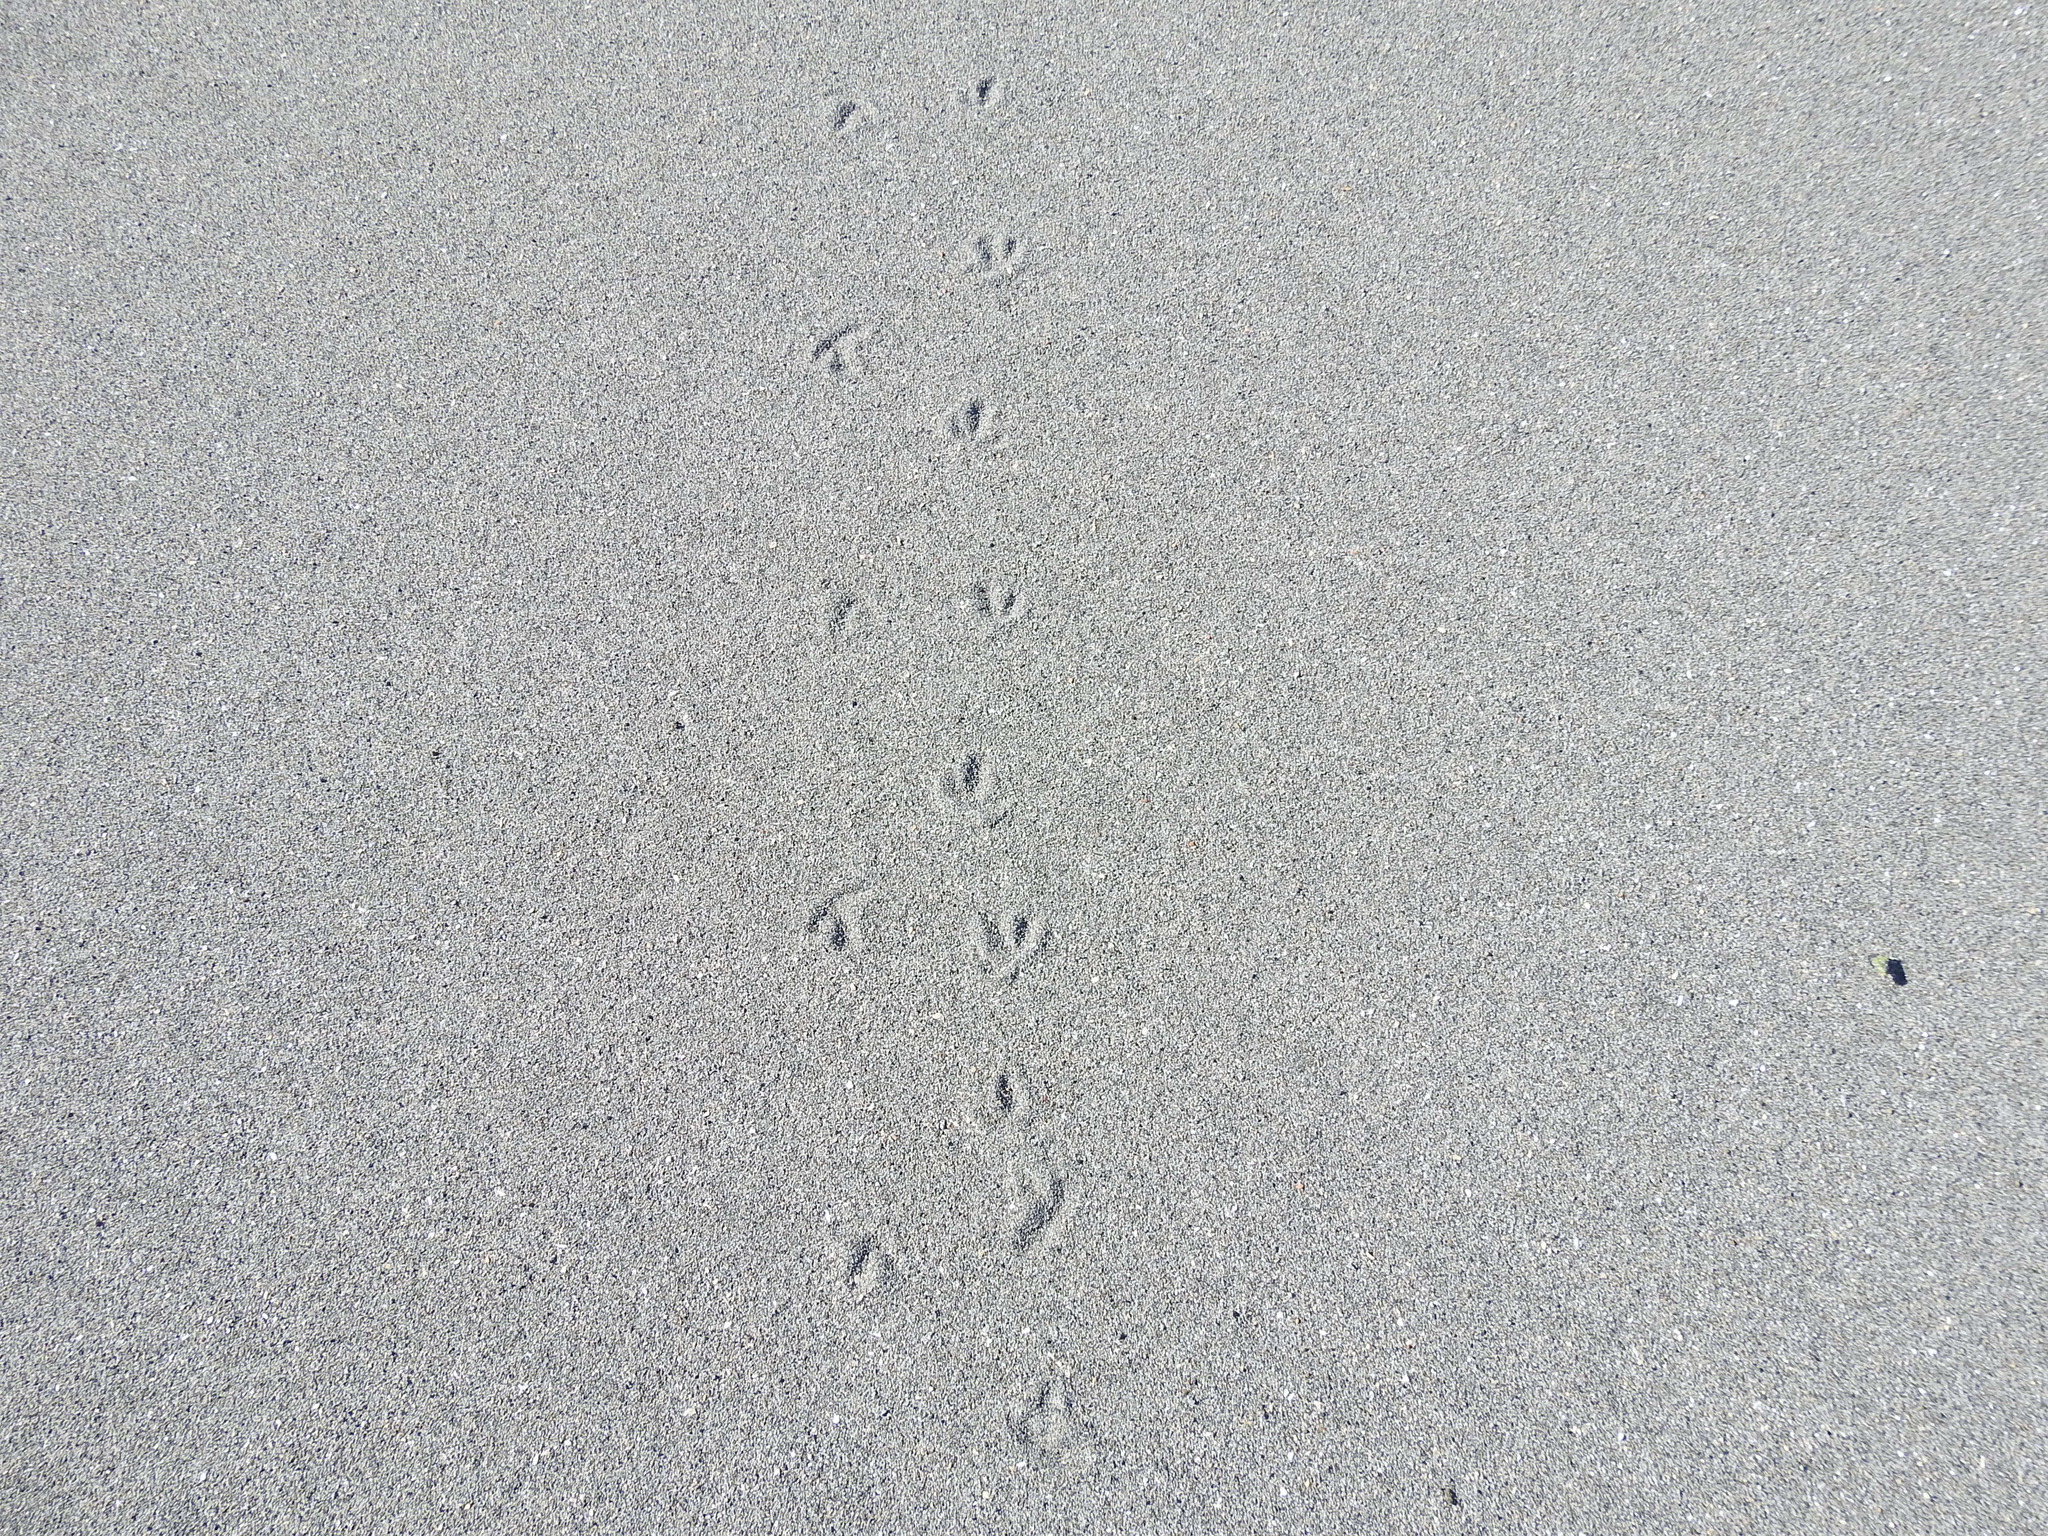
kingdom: Animalia
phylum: Chordata
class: Aves
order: Charadriiformes
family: Charadriidae
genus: Anarhynchus
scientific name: Anarhynchus
